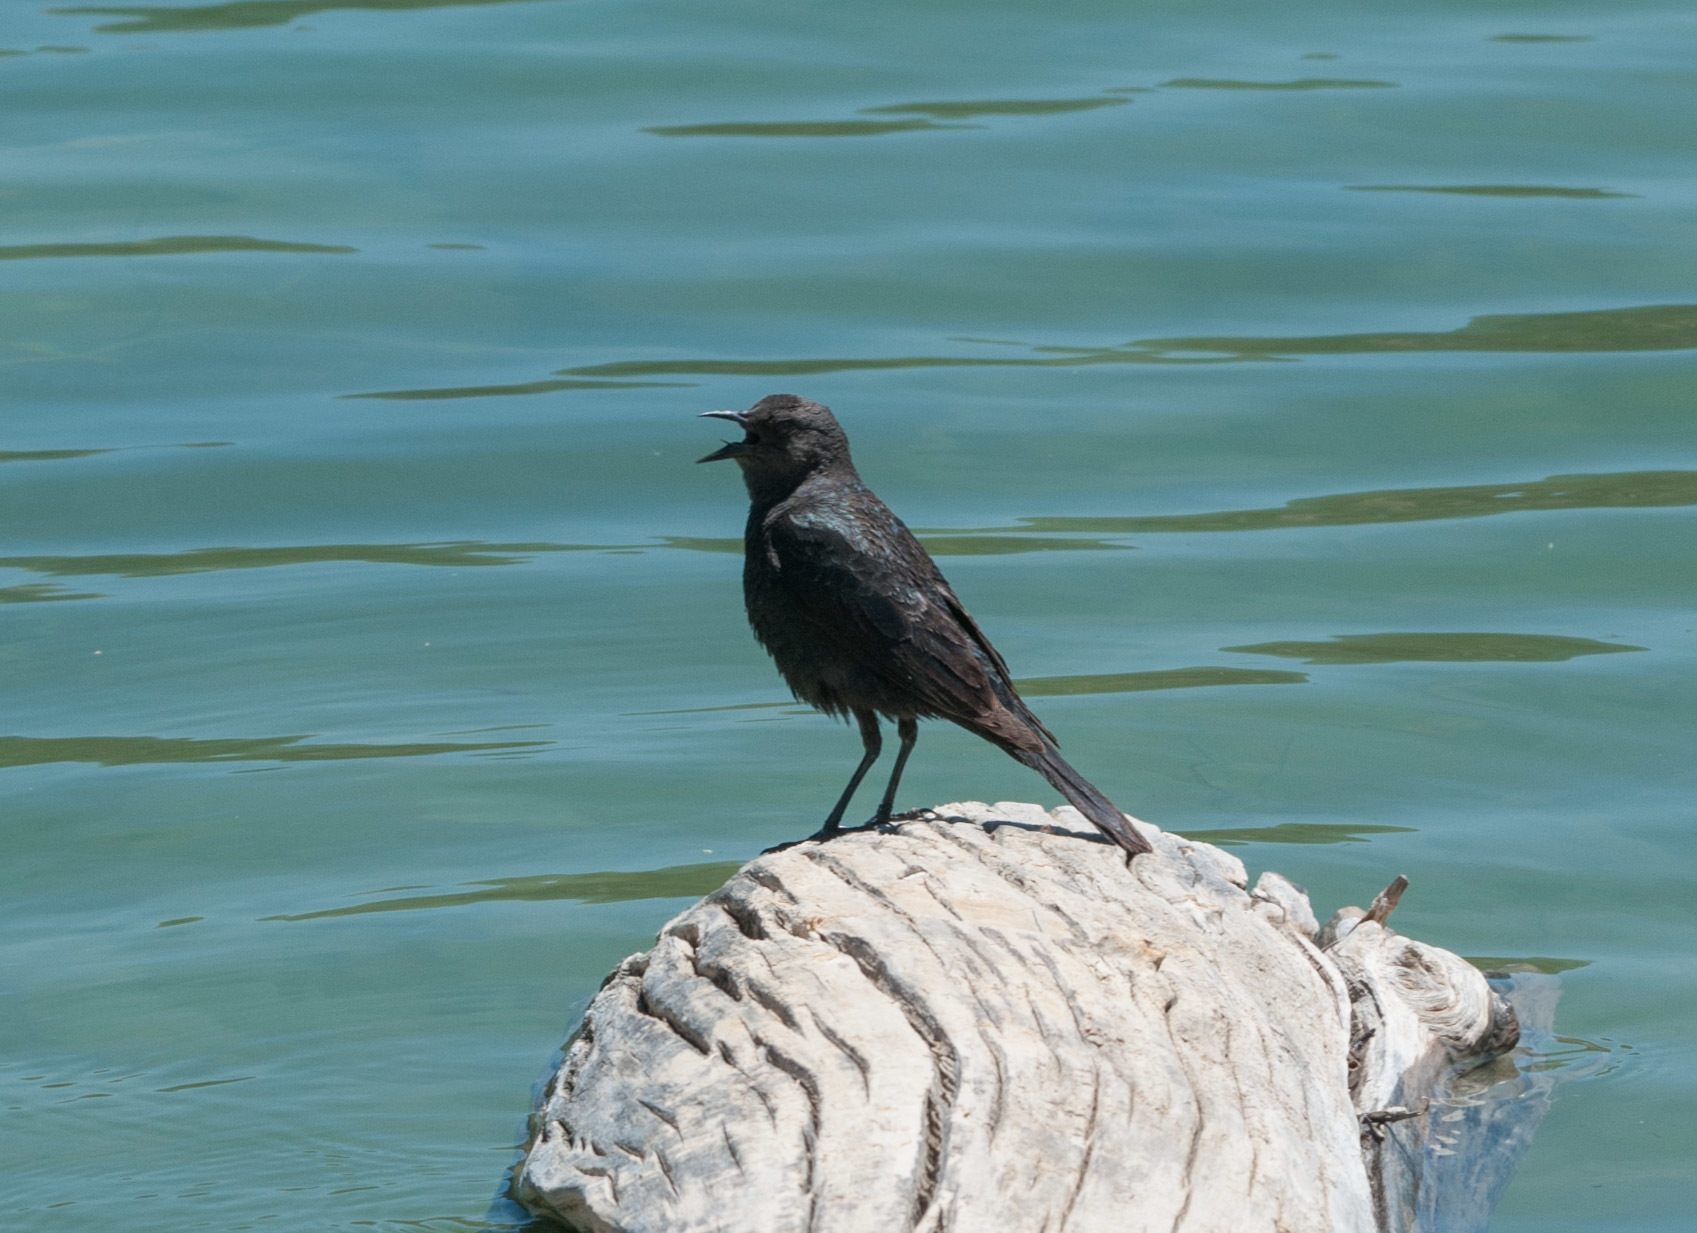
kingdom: Animalia
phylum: Chordata
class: Aves
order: Passeriformes
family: Icteridae
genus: Euphagus
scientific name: Euphagus cyanocephalus
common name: Brewer's blackbird
